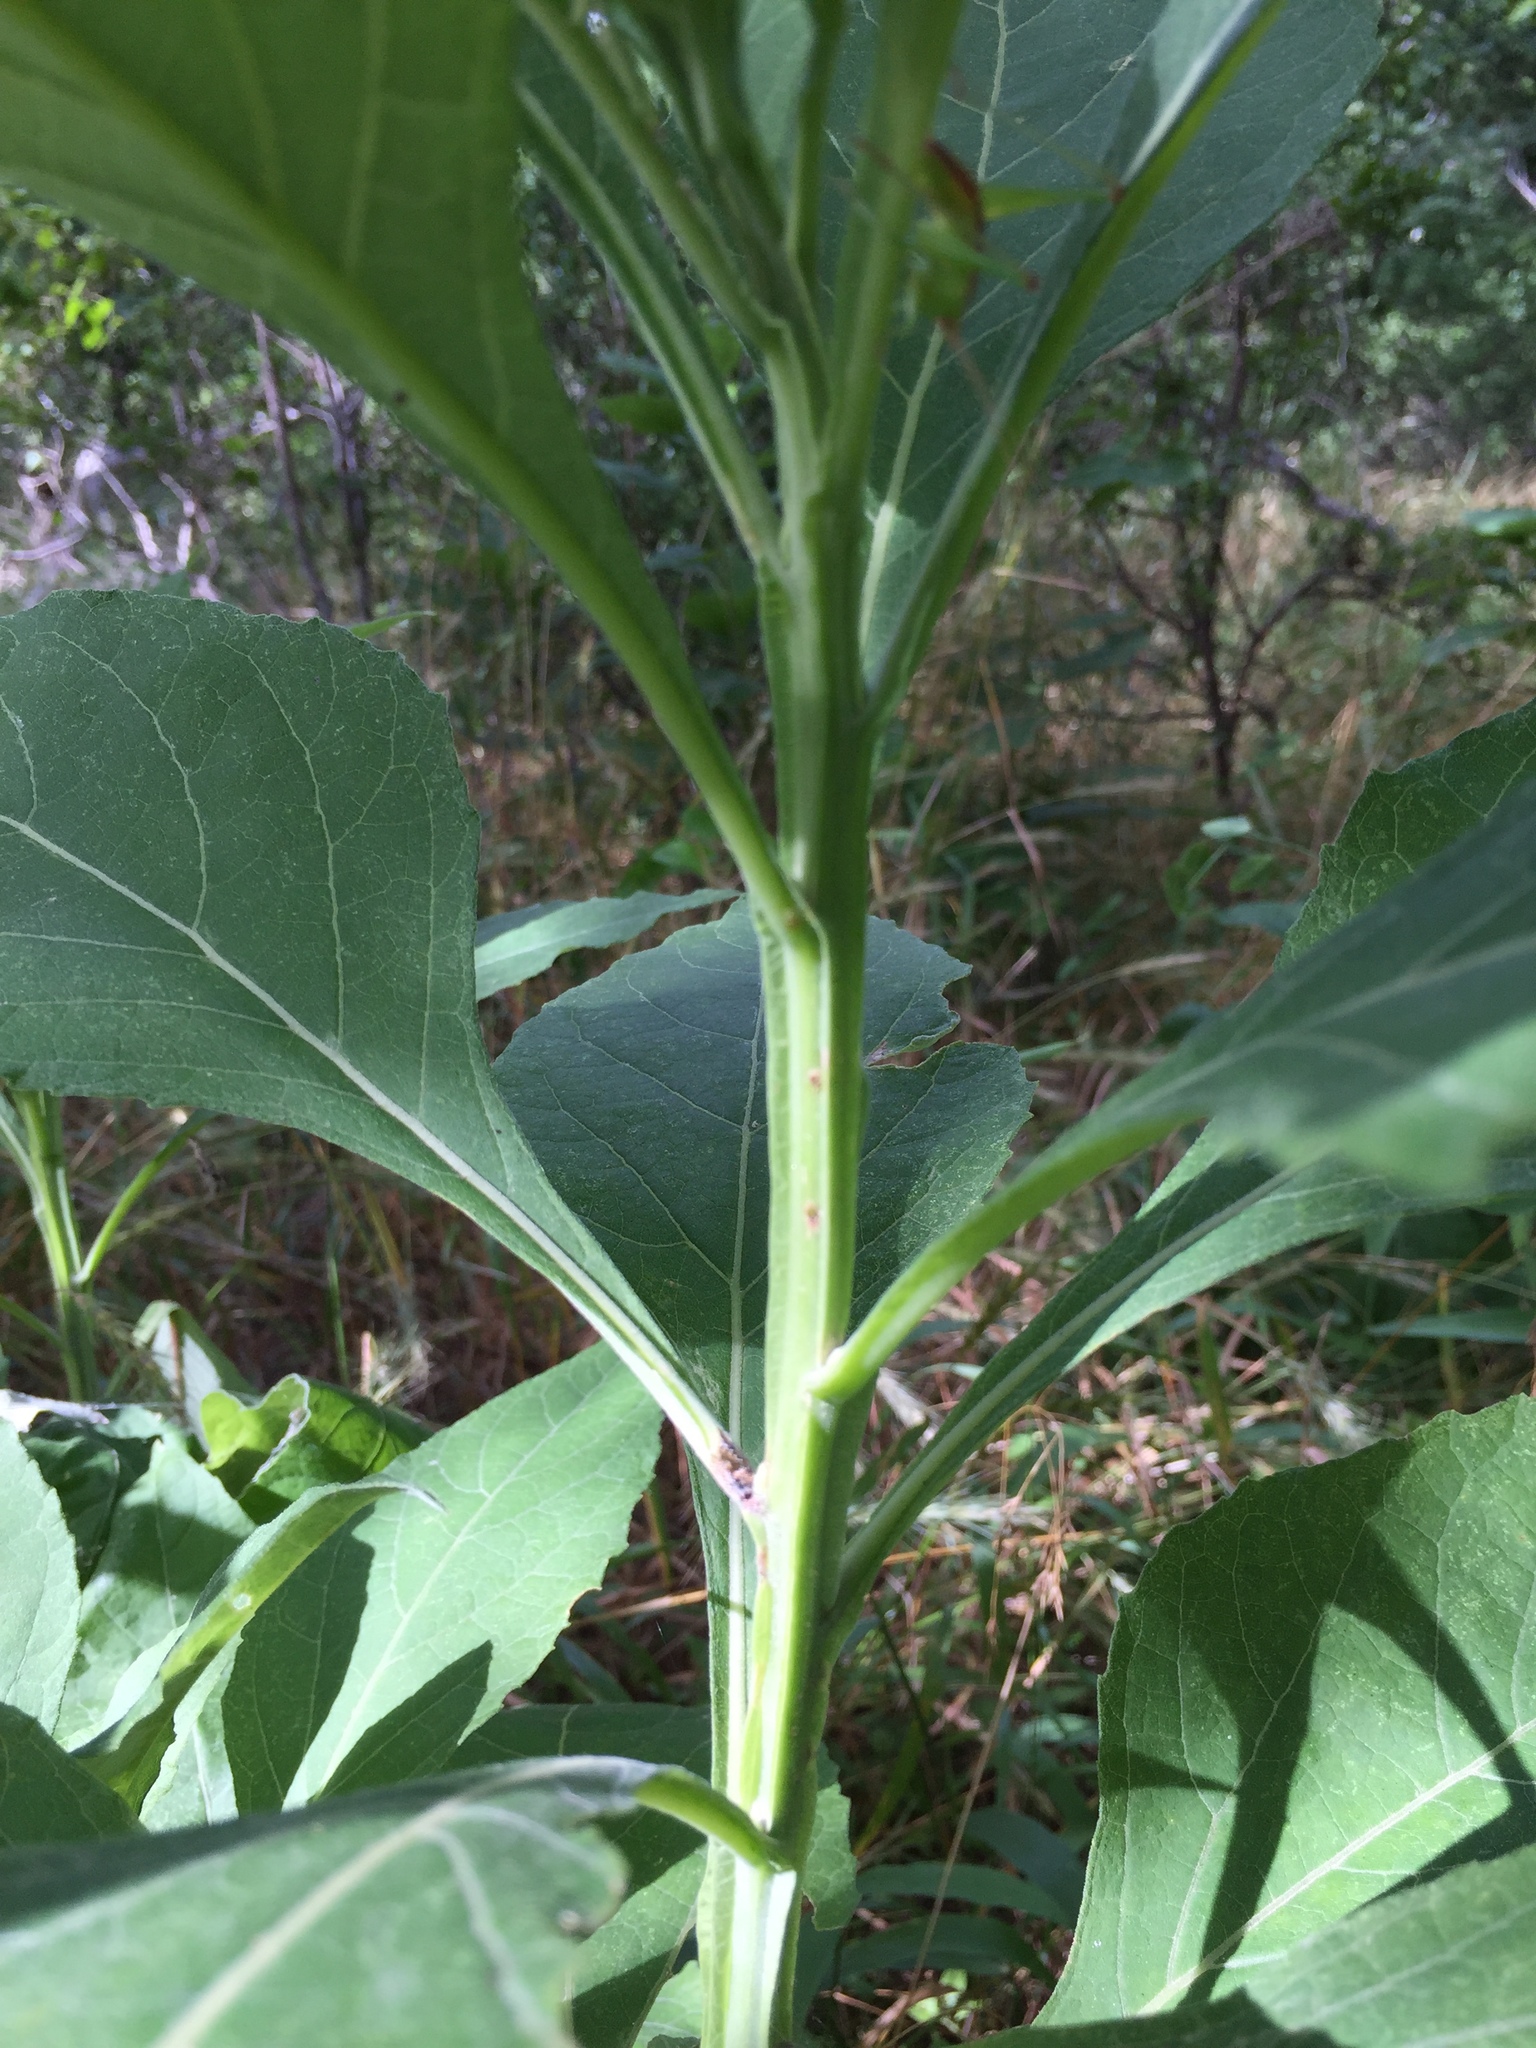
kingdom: Plantae
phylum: Tracheophyta
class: Magnoliopsida
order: Asterales
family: Asteraceae
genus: Verbesina
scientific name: Verbesina virginica
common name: Frostweed
